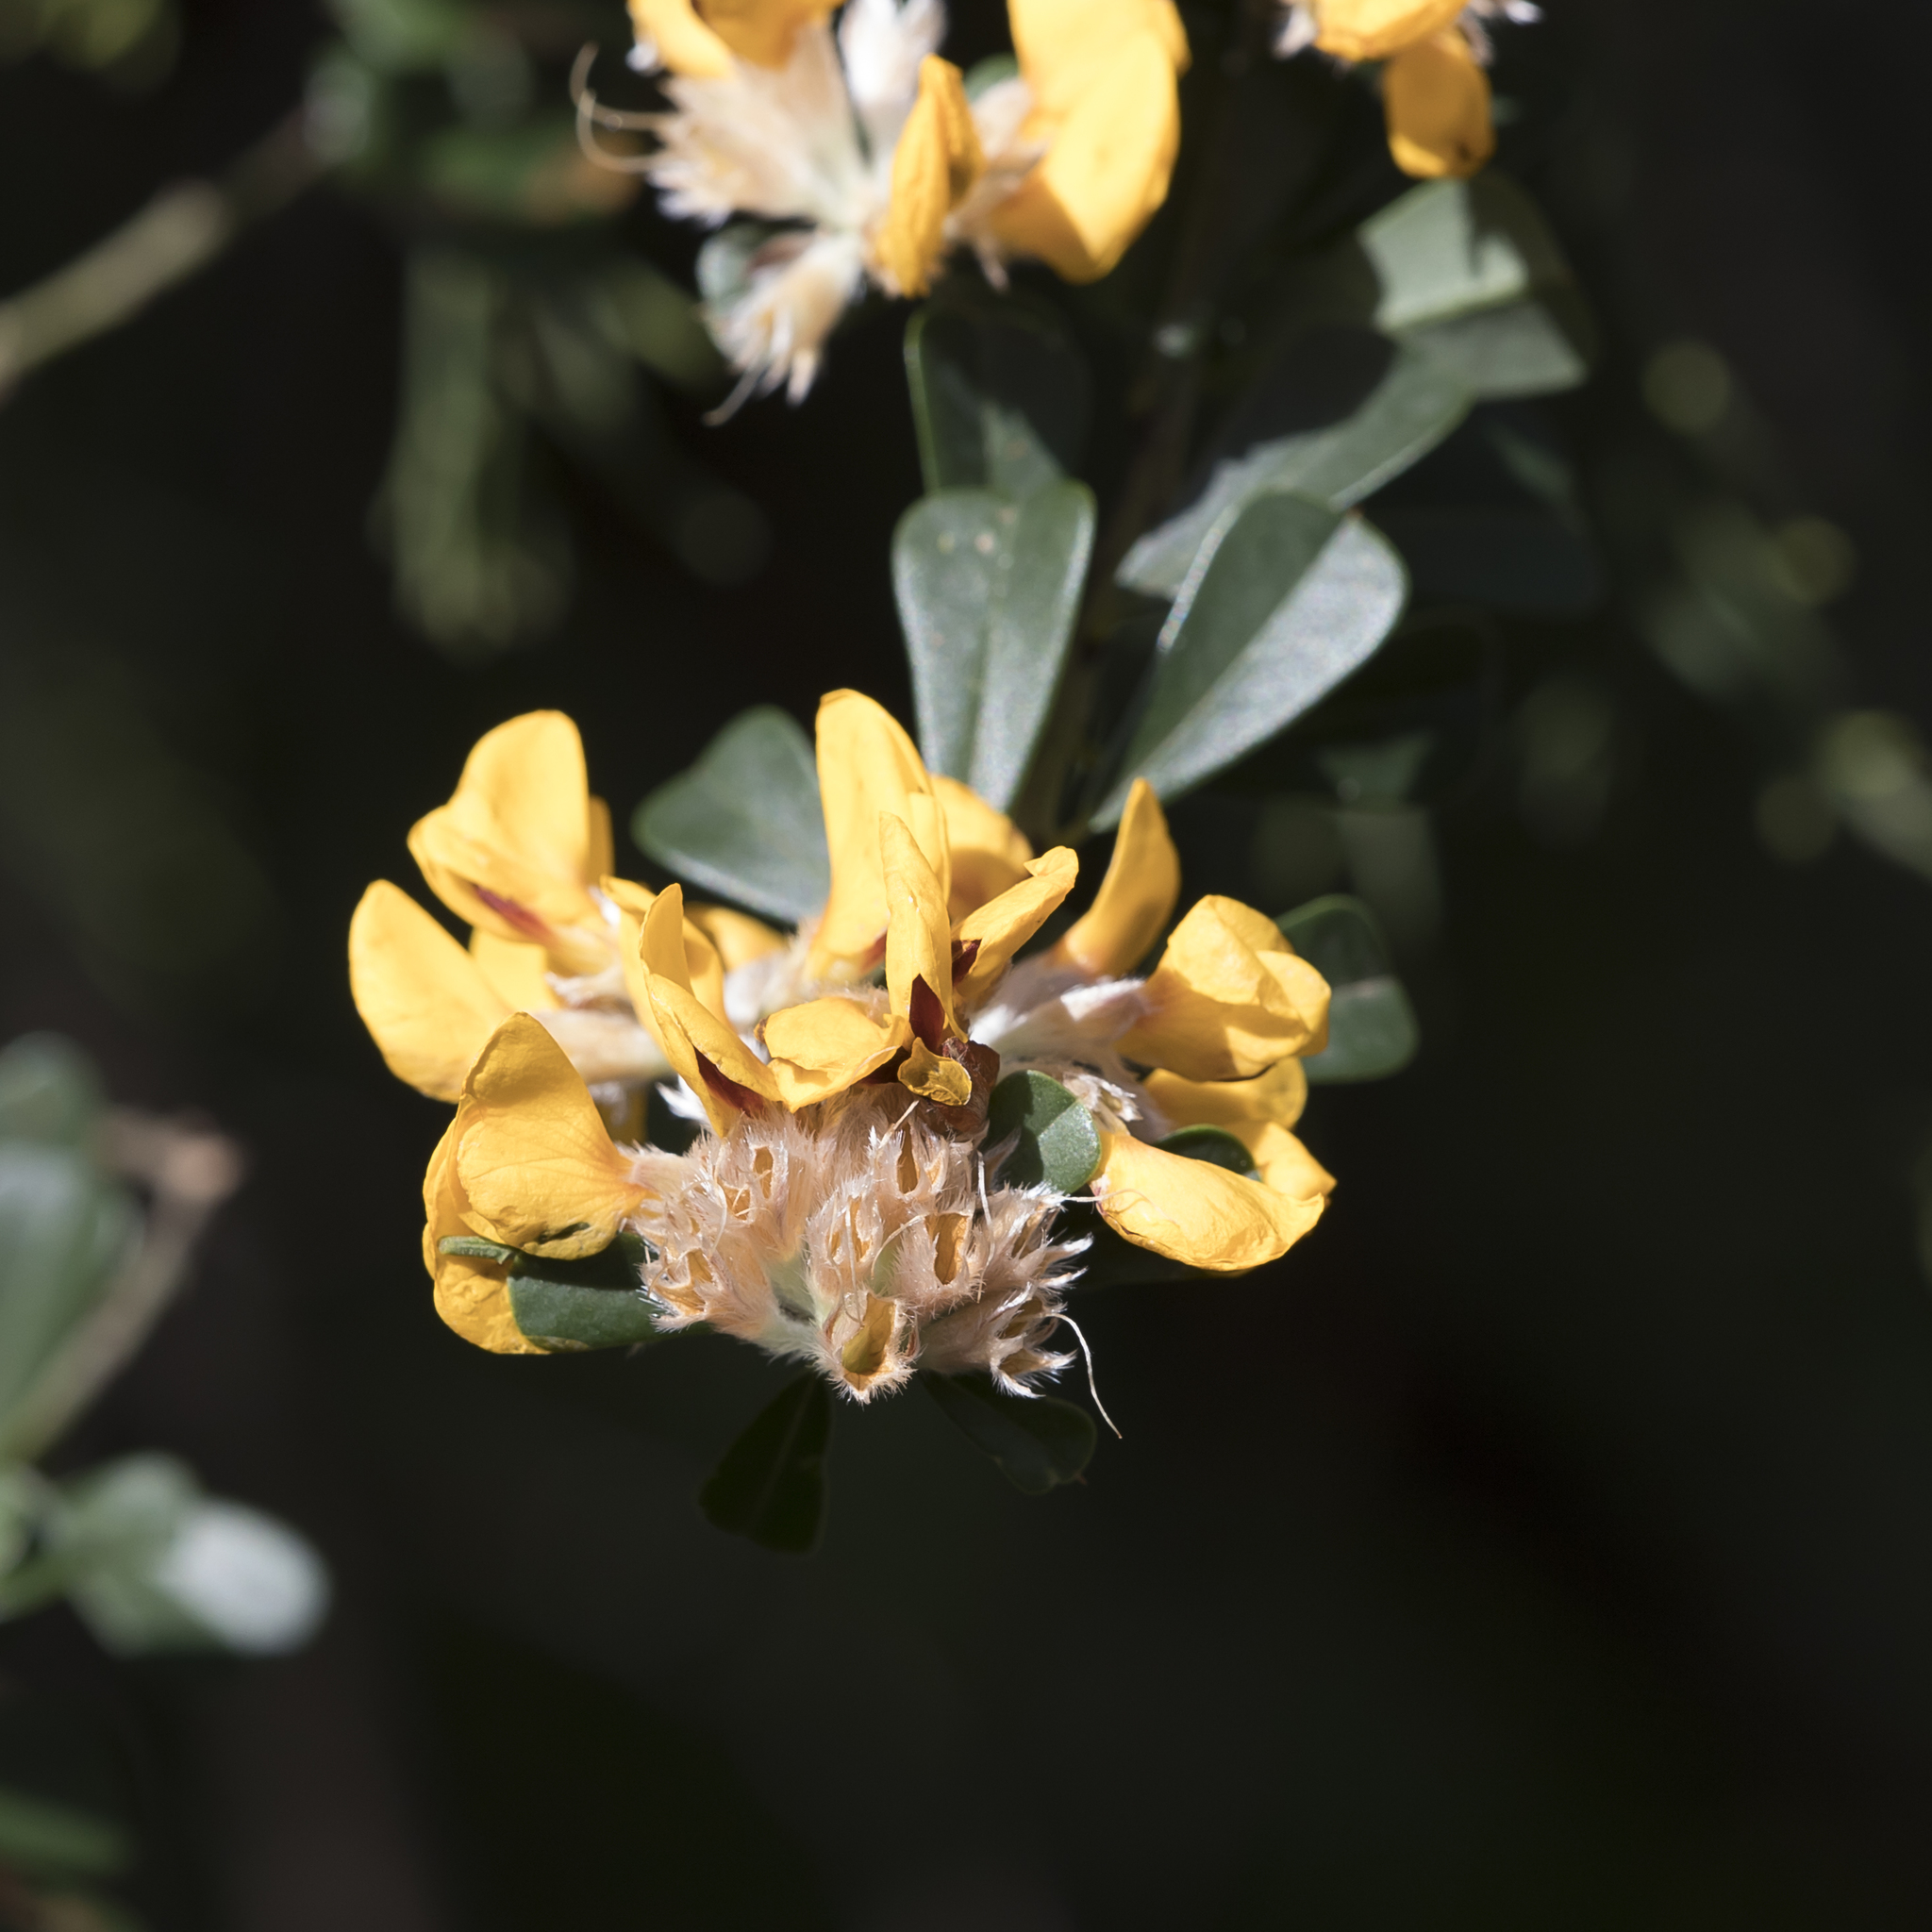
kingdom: Plantae
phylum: Tracheophyta
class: Magnoliopsida
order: Fabales
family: Fabaceae
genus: Pultenaea
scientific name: Pultenaea daphnoides
